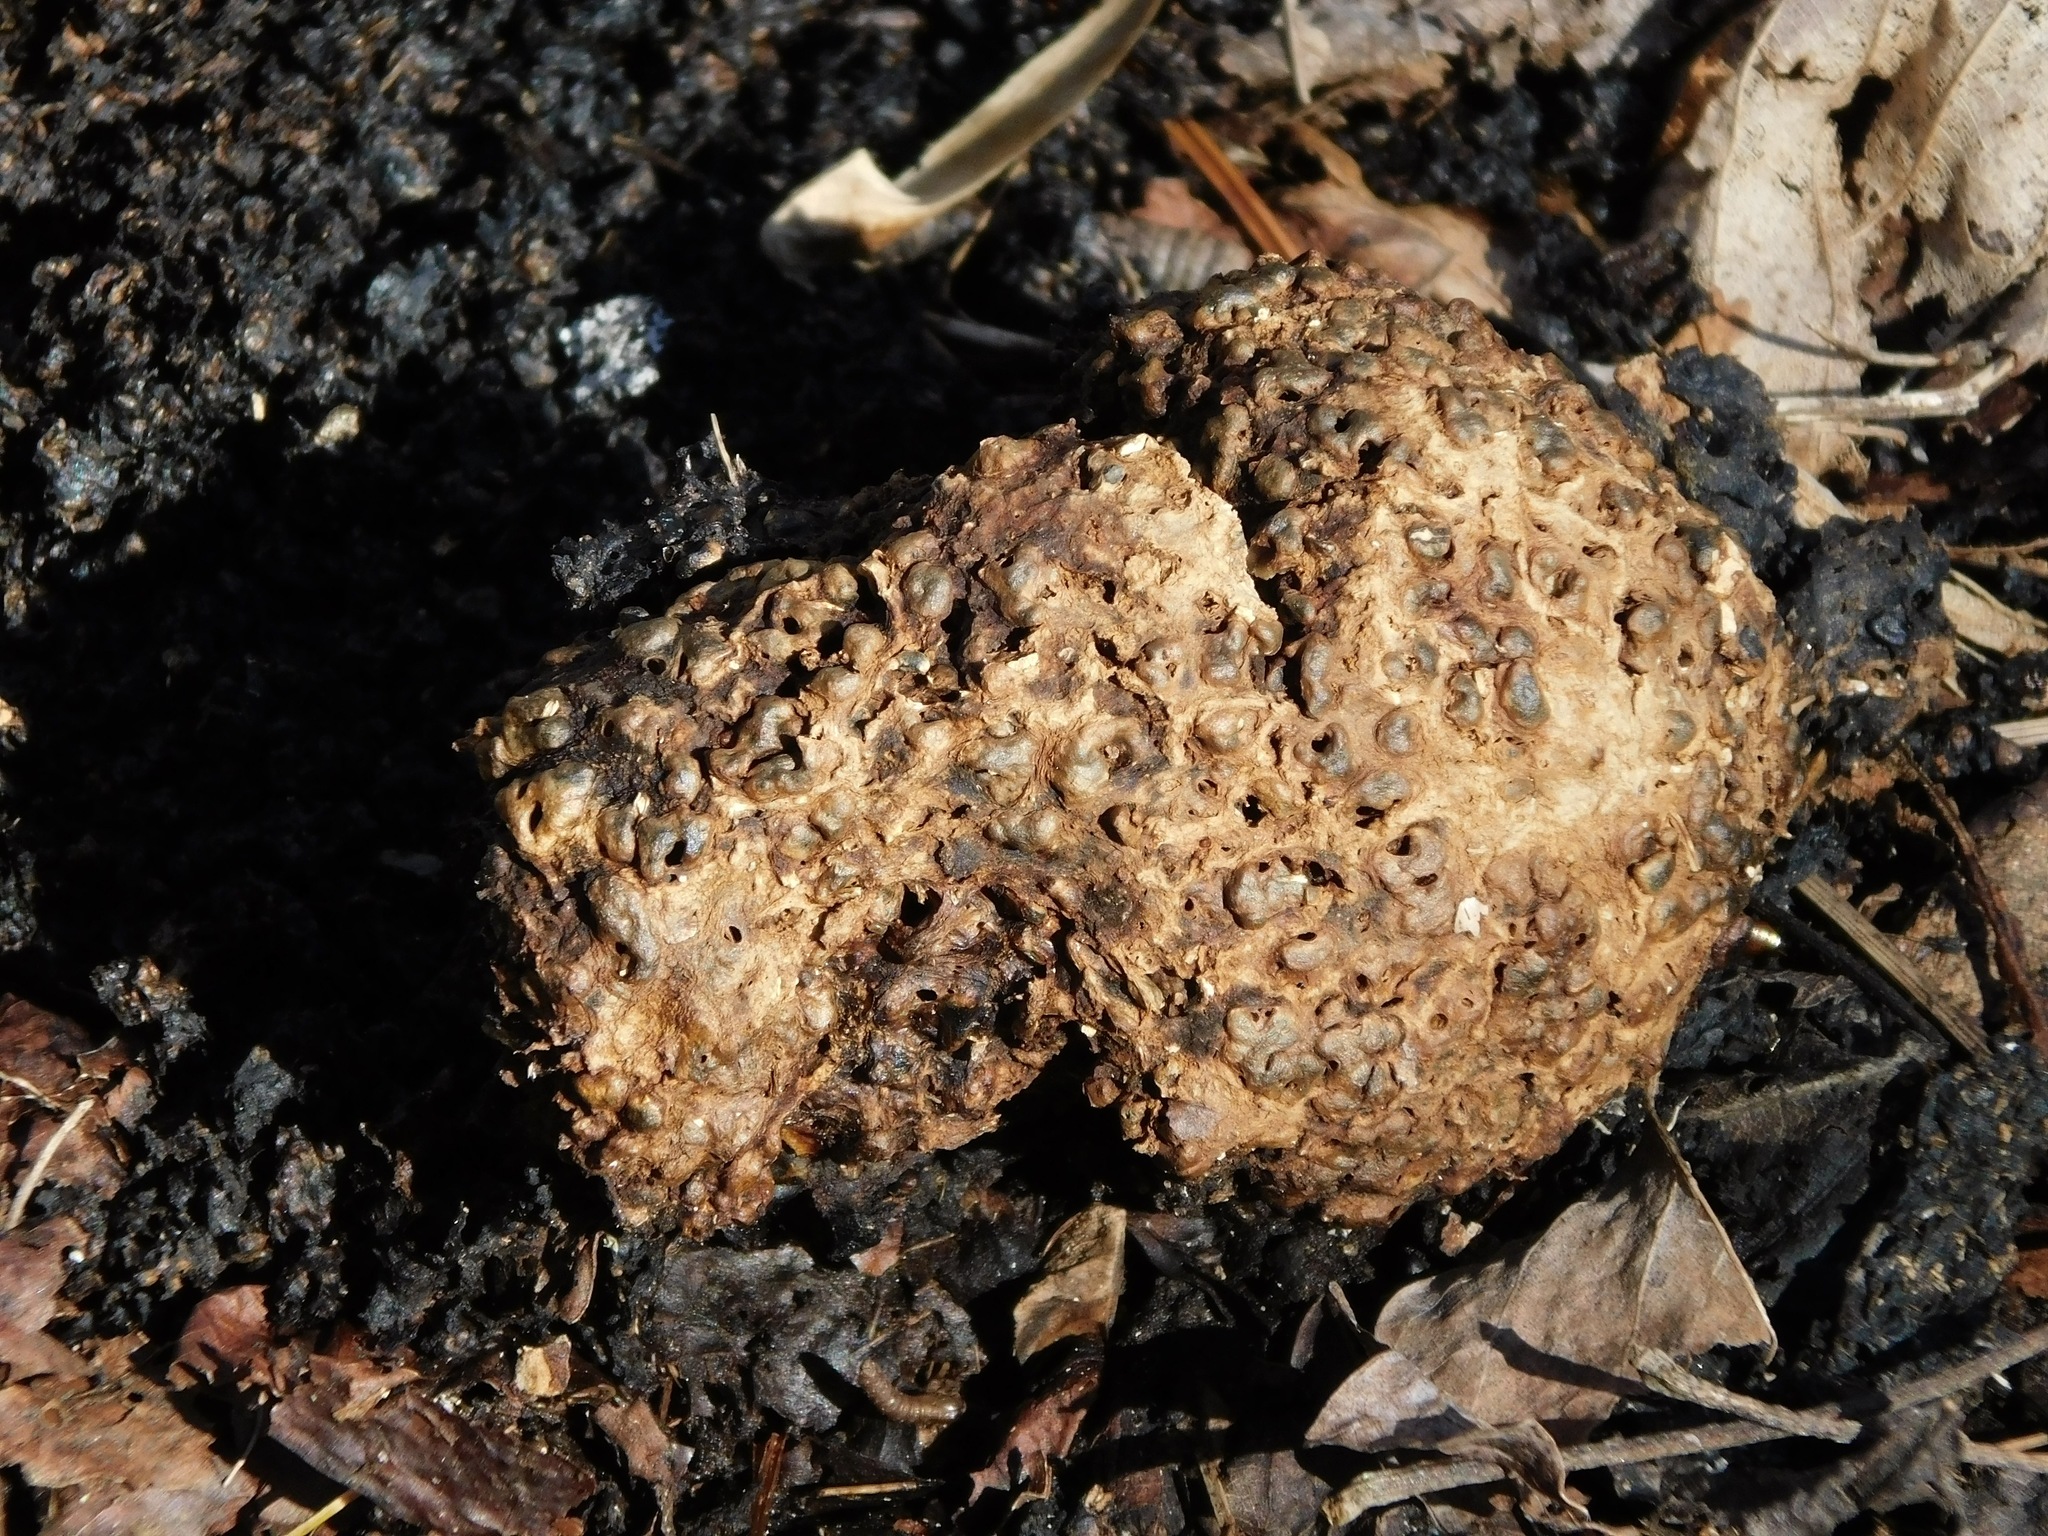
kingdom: Fungi
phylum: Basidiomycota
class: Agaricomycetes
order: Boletales
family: Sclerodermataceae
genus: Scleroderma
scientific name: Scleroderma citrinum
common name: Common earthball
